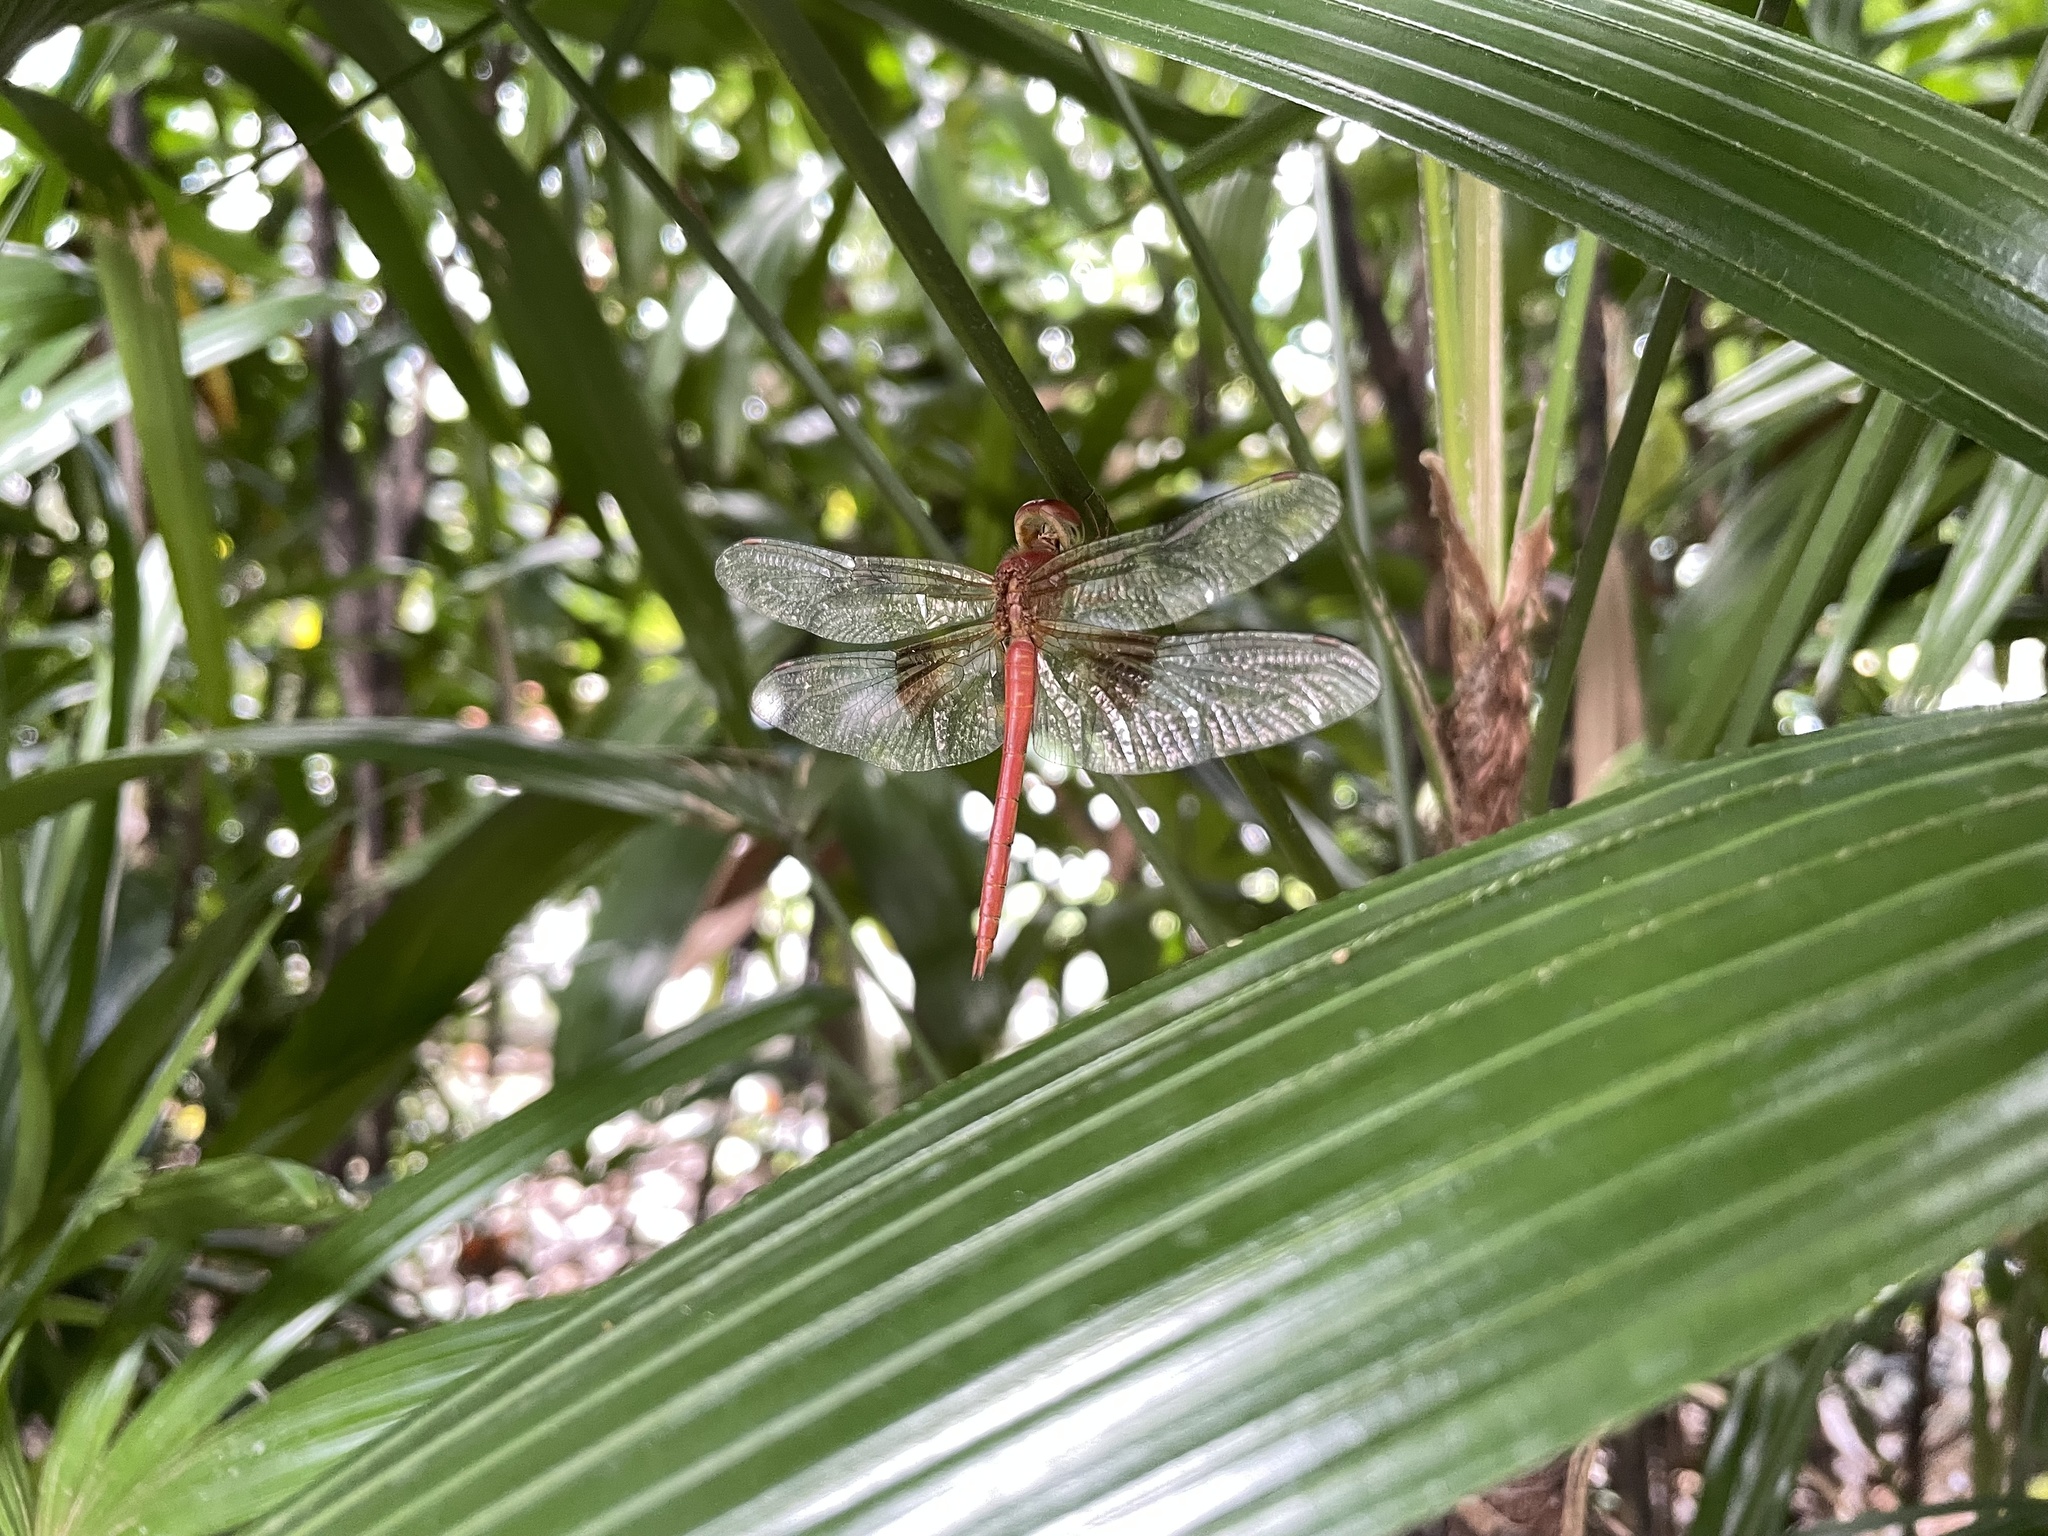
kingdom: Animalia
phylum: Arthropoda
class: Insecta
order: Odonata
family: Libellulidae
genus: Tholymis
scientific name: Tholymis tillarga
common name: Coral-tailed cloud wing
